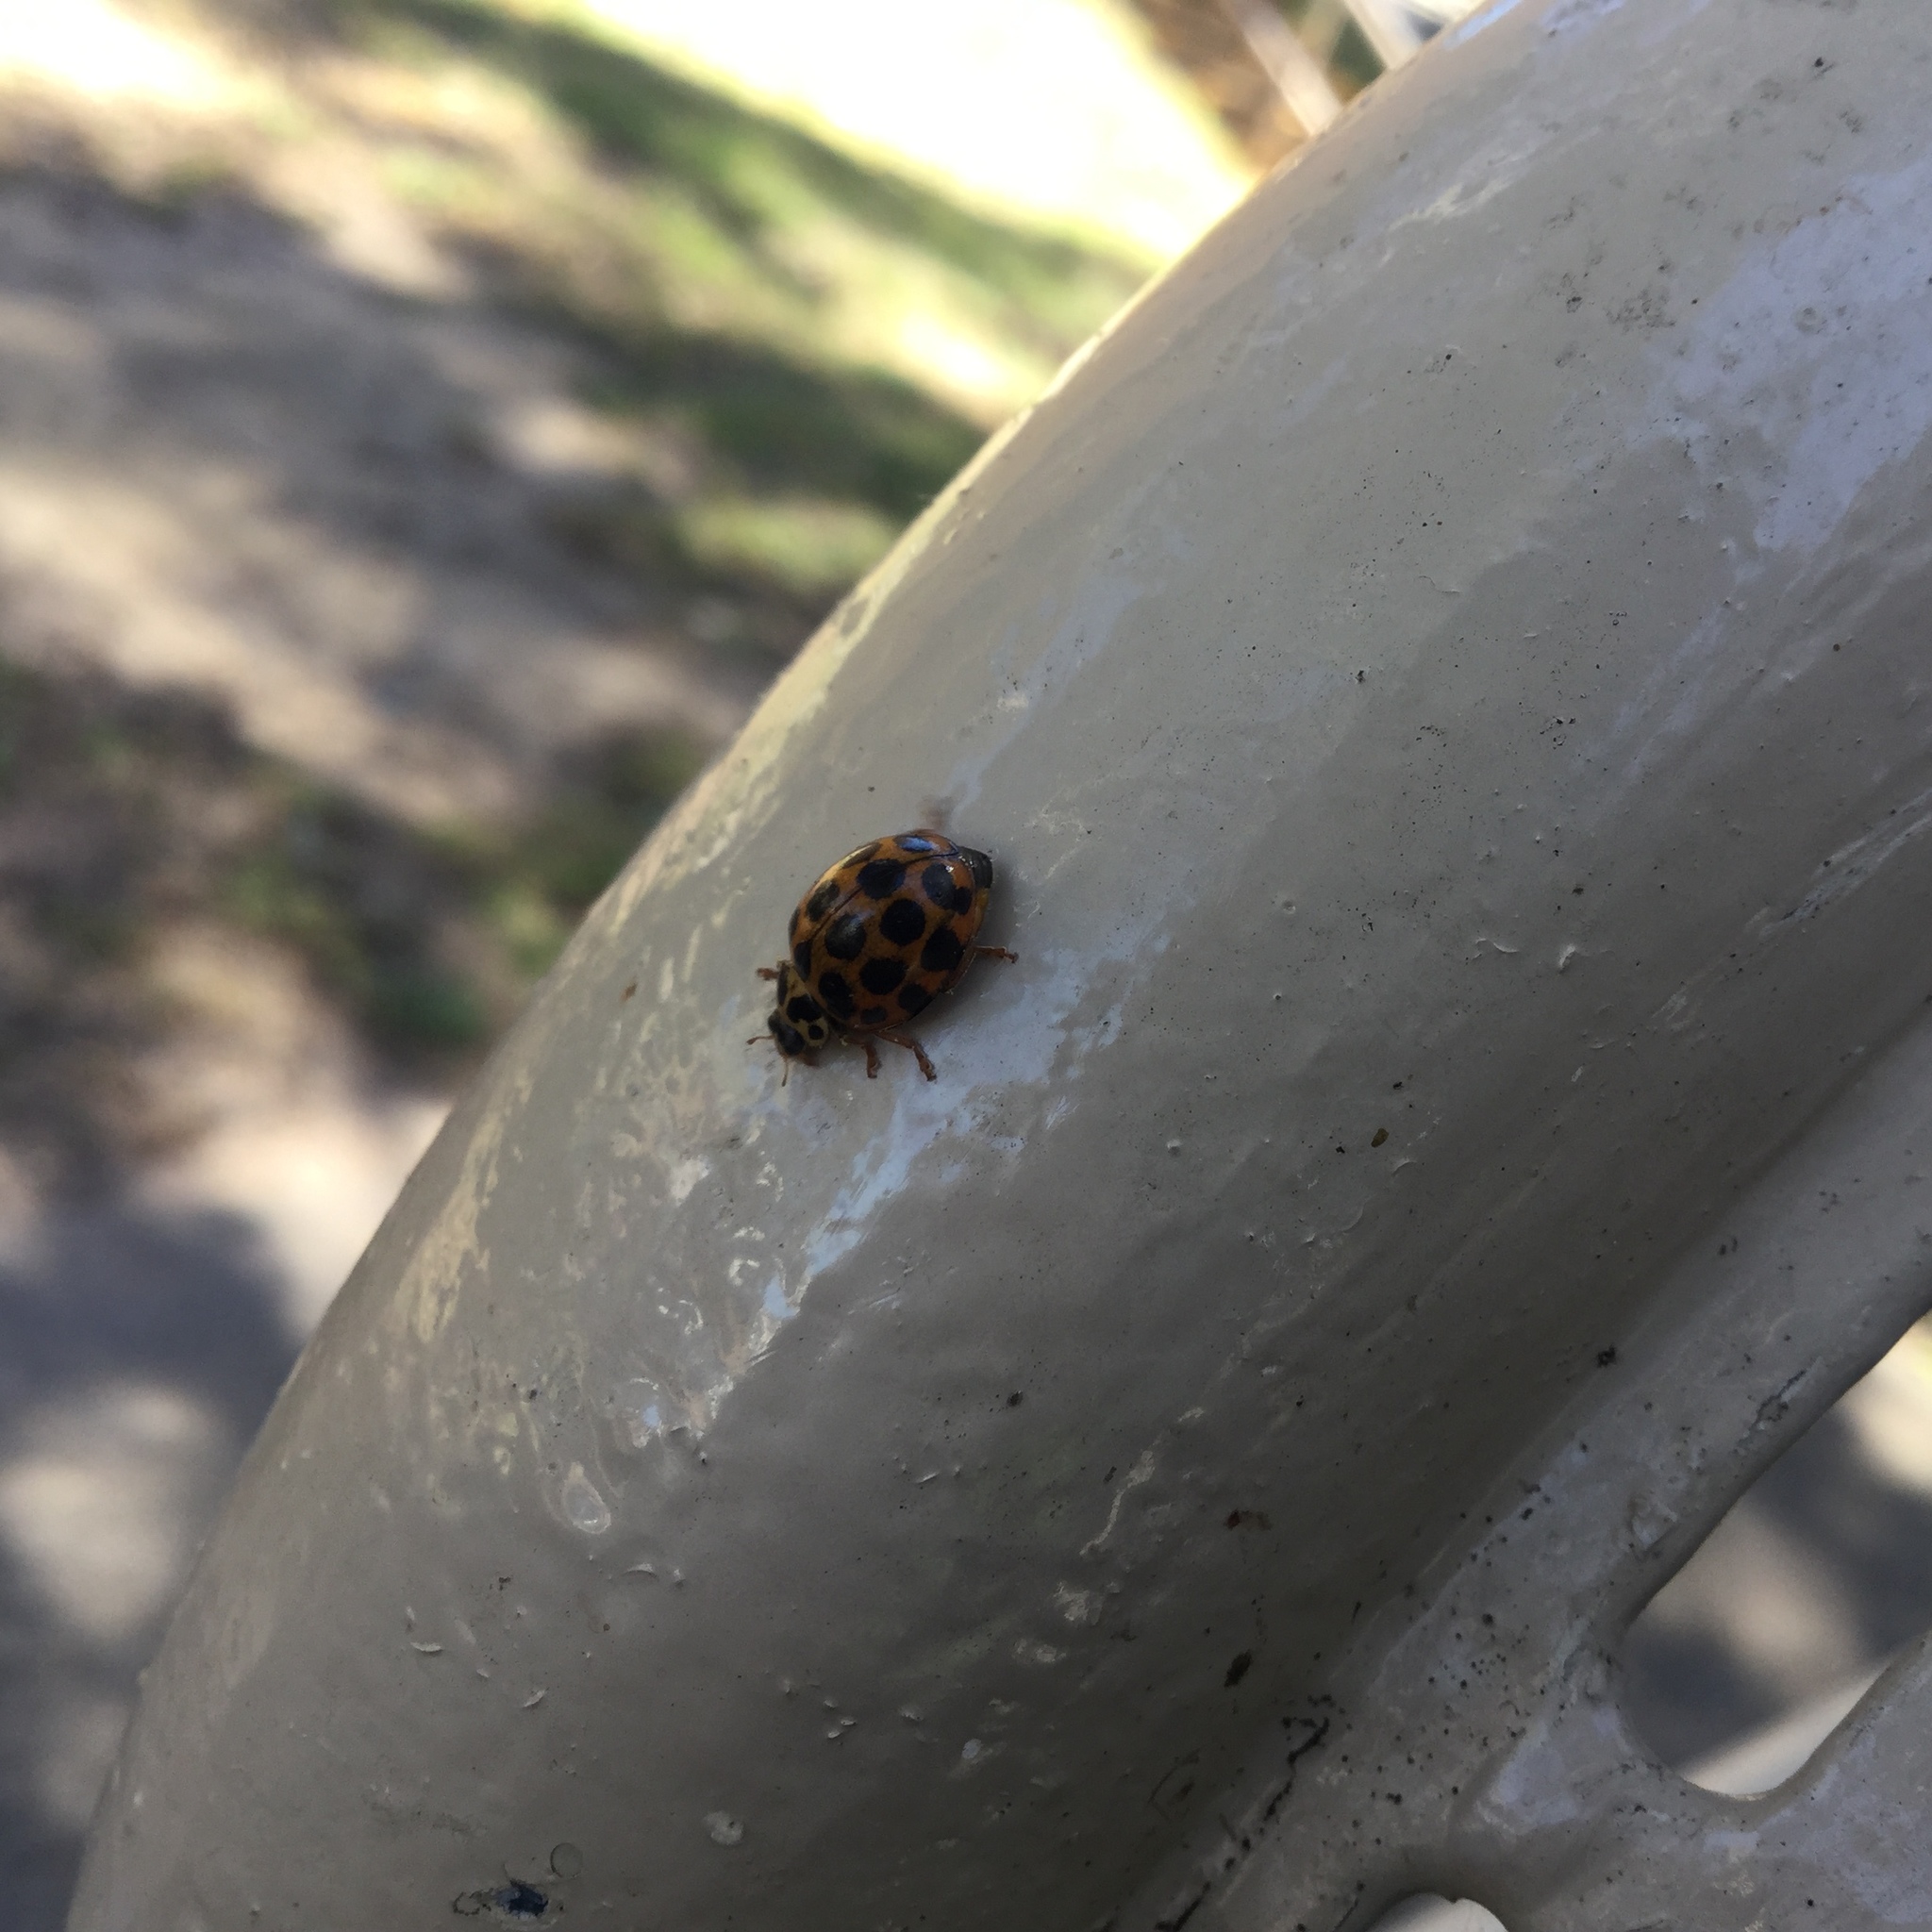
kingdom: Animalia
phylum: Arthropoda
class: Insecta
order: Coleoptera
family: Coccinellidae
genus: Harmonia
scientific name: Harmonia conformis
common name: Common spotted ladybird beetle
